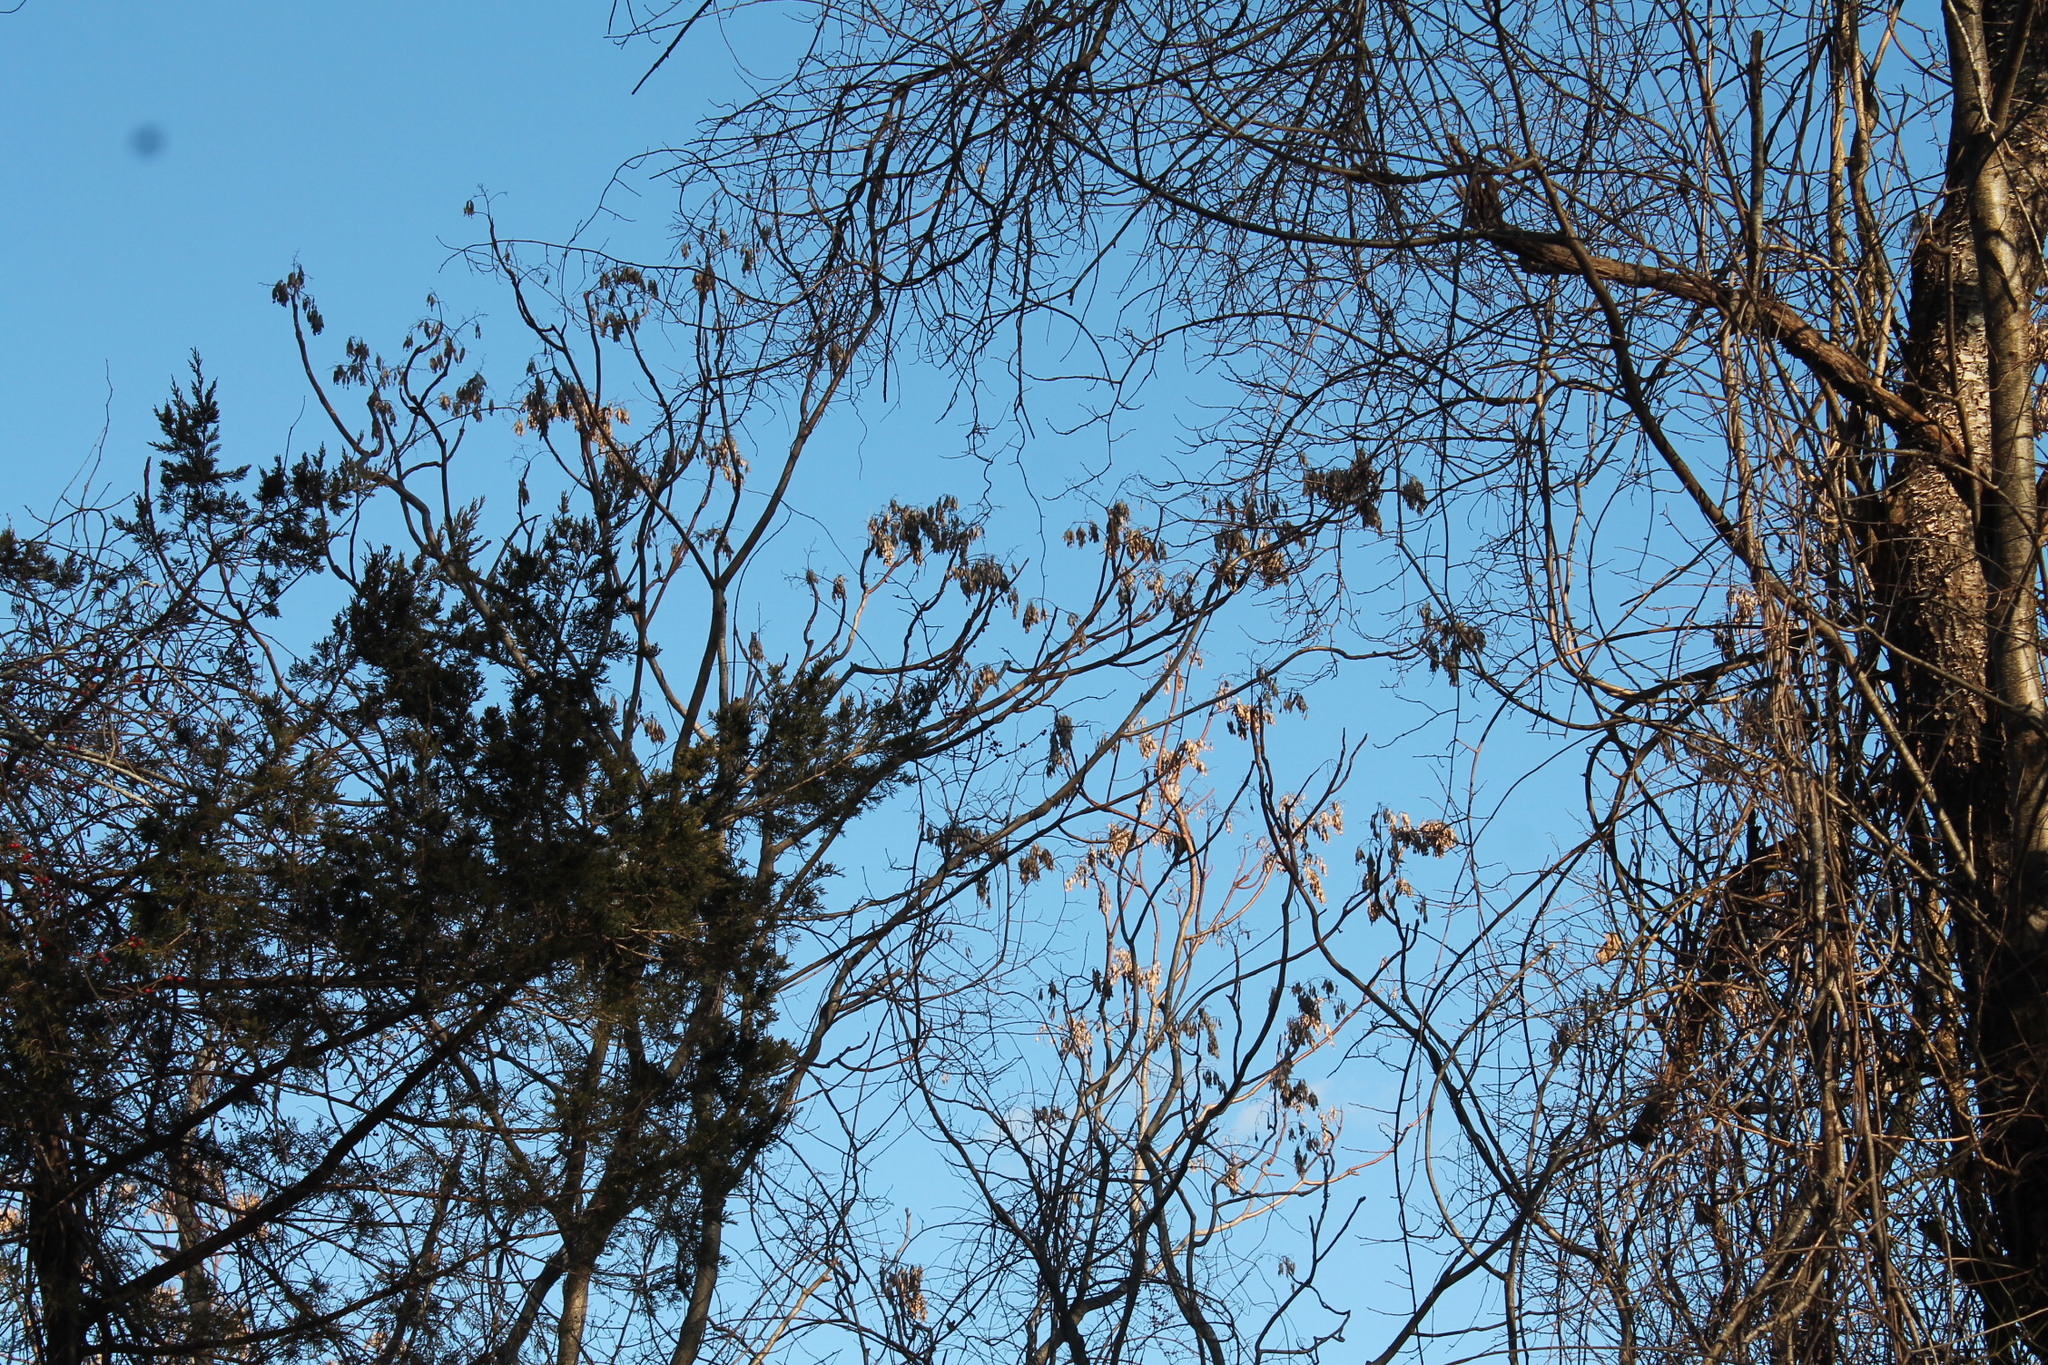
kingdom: Plantae
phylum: Tracheophyta
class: Magnoliopsida
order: Sapindales
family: Simaroubaceae
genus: Ailanthus
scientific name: Ailanthus altissima
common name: Tree-of-heaven
